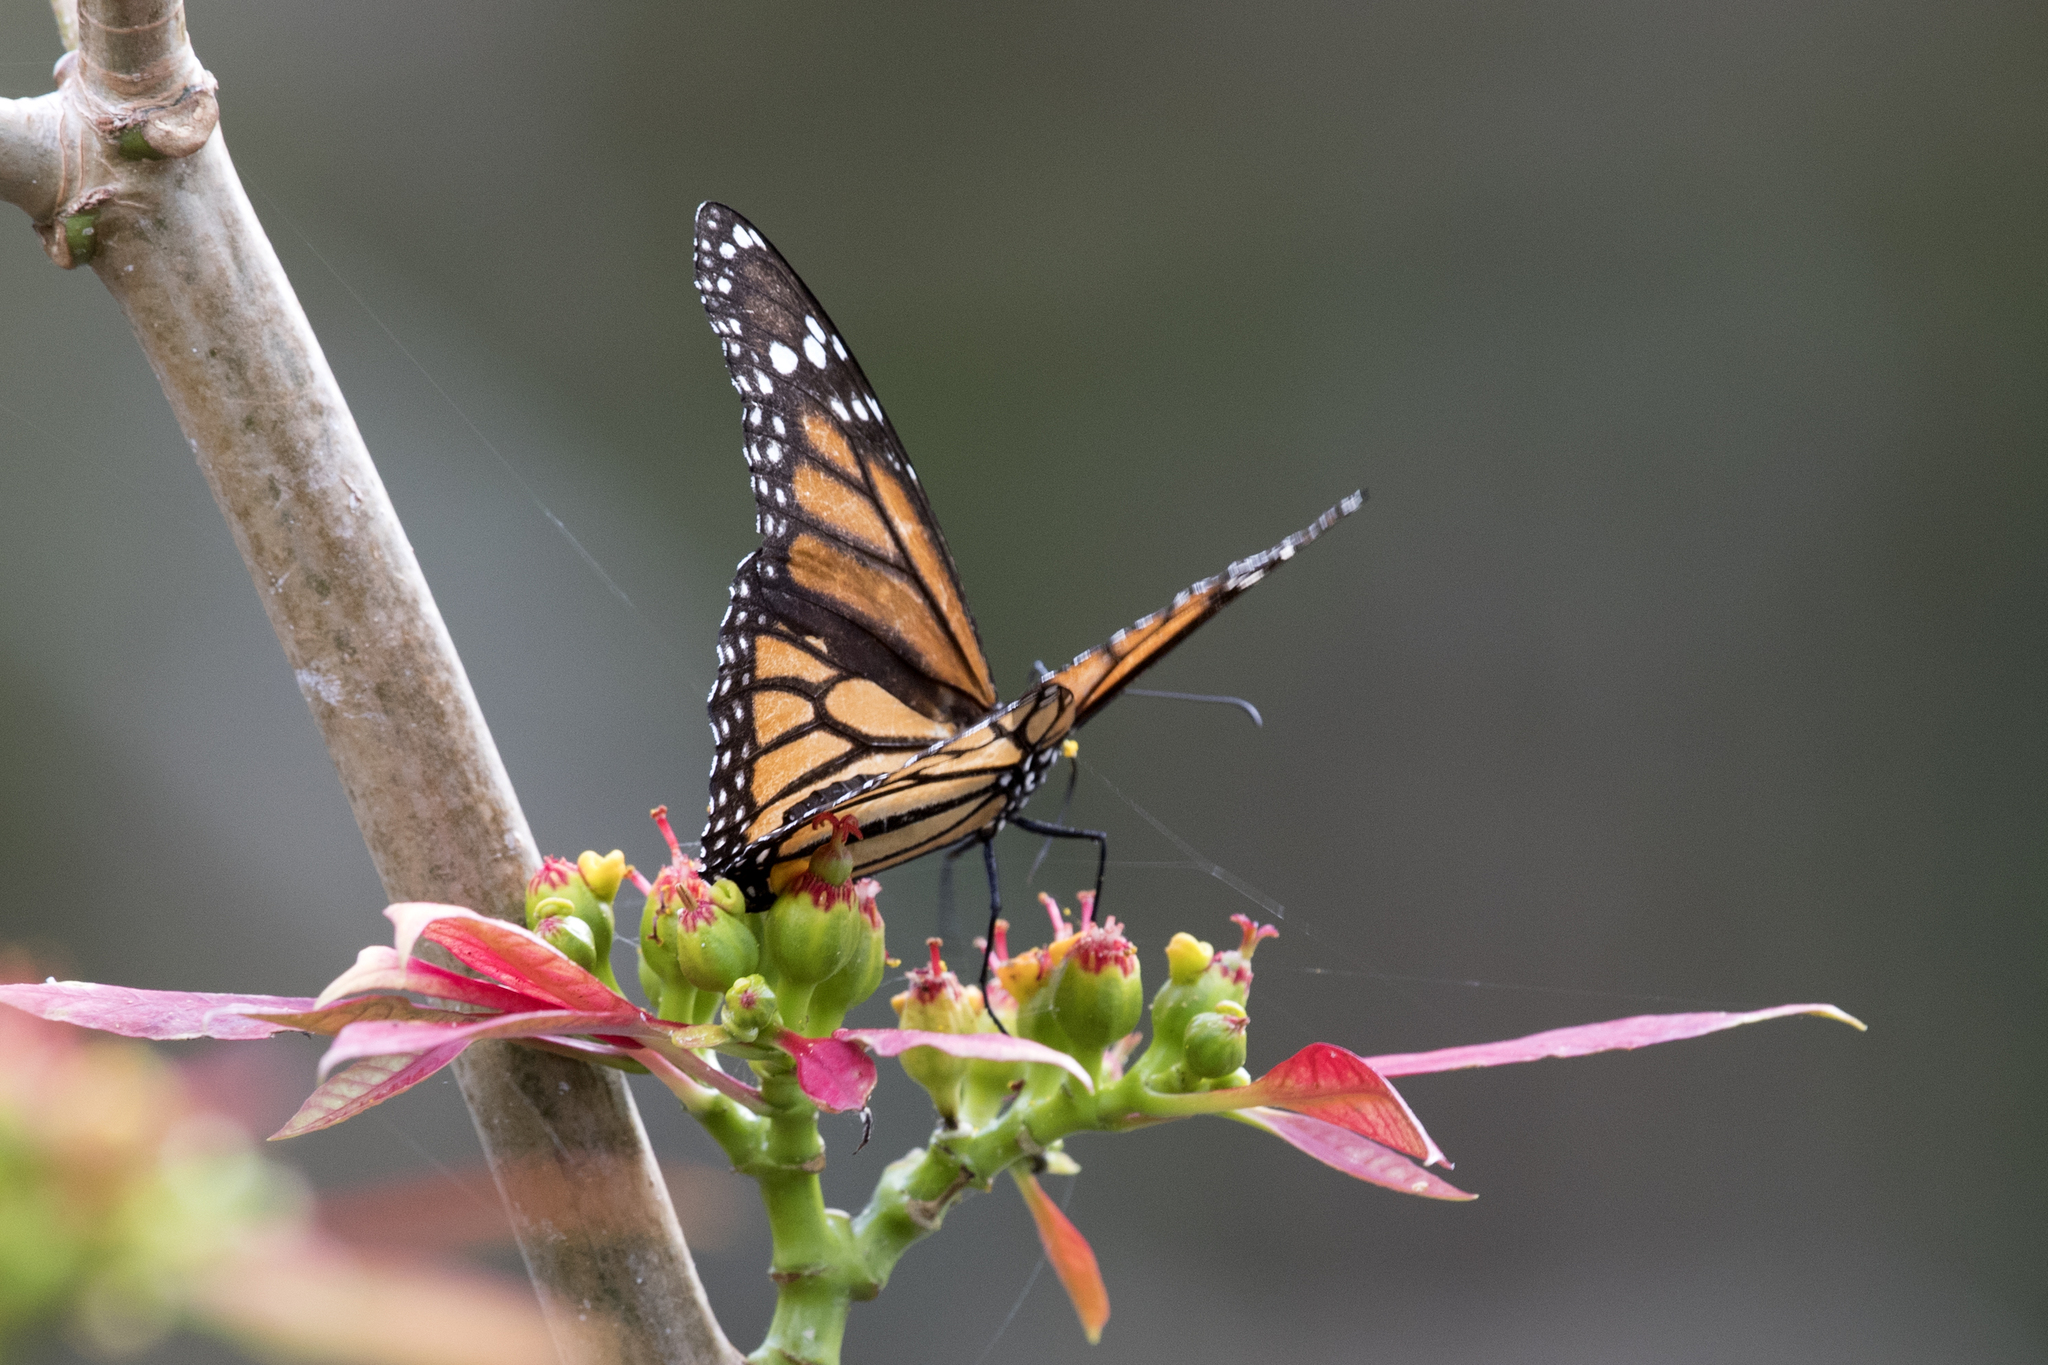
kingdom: Animalia
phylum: Arthropoda
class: Insecta
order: Lepidoptera
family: Nymphalidae
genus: Danaus
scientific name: Danaus plexippus
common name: Monarch
